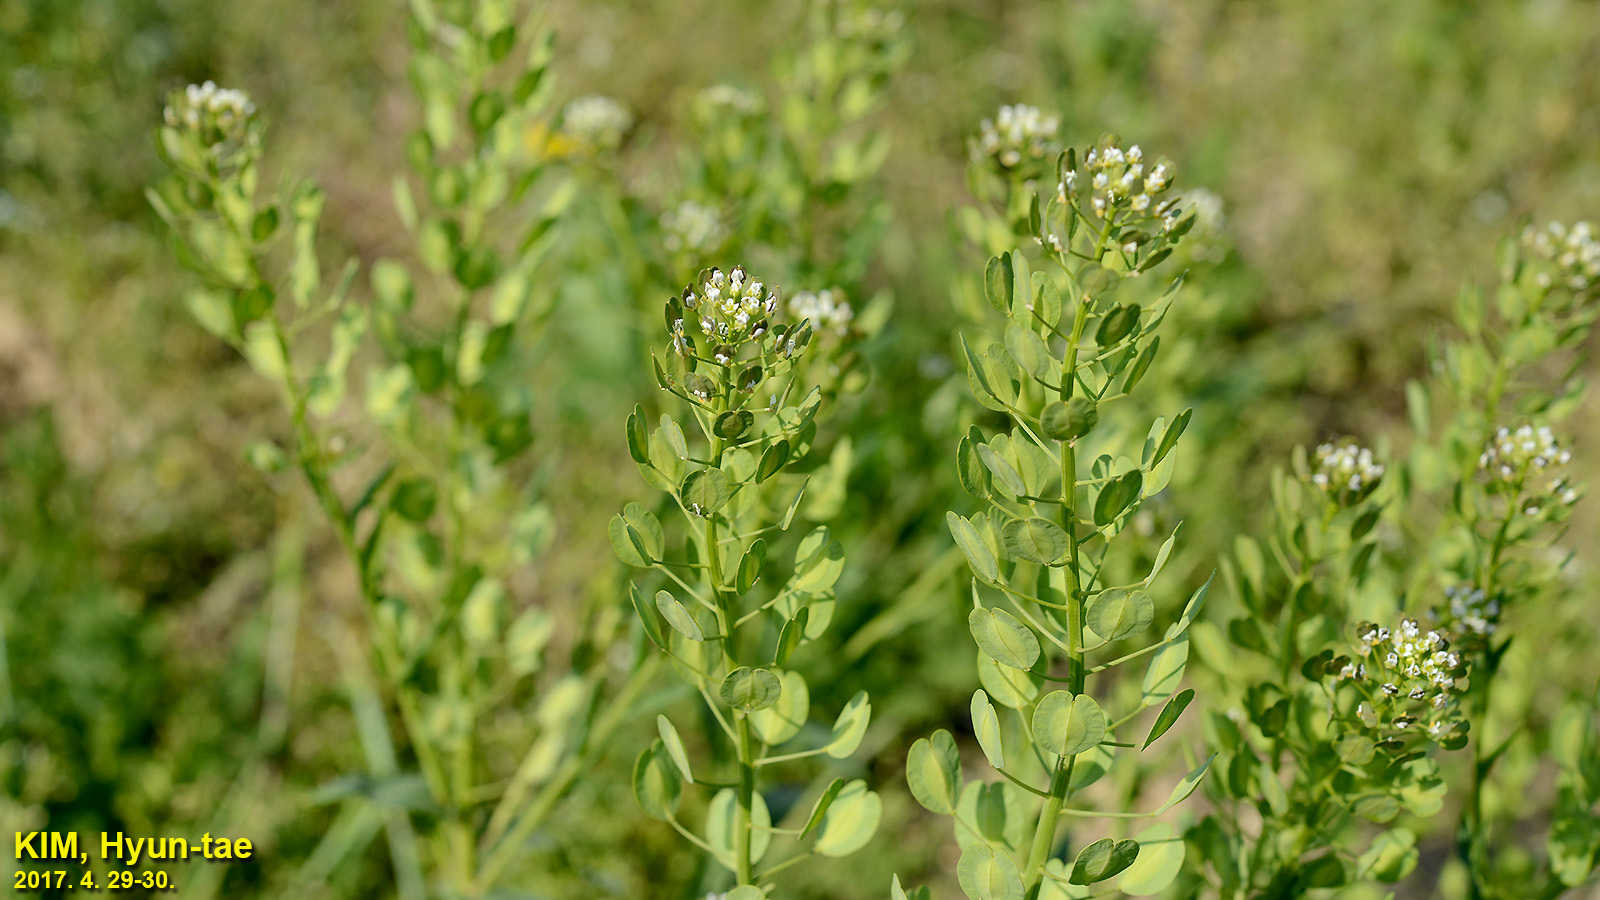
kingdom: Plantae
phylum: Tracheophyta
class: Magnoliopsida
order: Brassicales
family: Brassicaceae
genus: Thlaspi
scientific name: Thlaspi arvense
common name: Field pennycress
